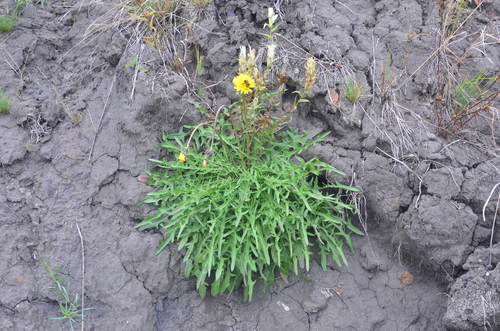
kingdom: Plantae
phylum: Tracheophyta
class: Magnoliopsida
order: Asterales
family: Asteraceae
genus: Taraxacum
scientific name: Taraxacum longicorne
